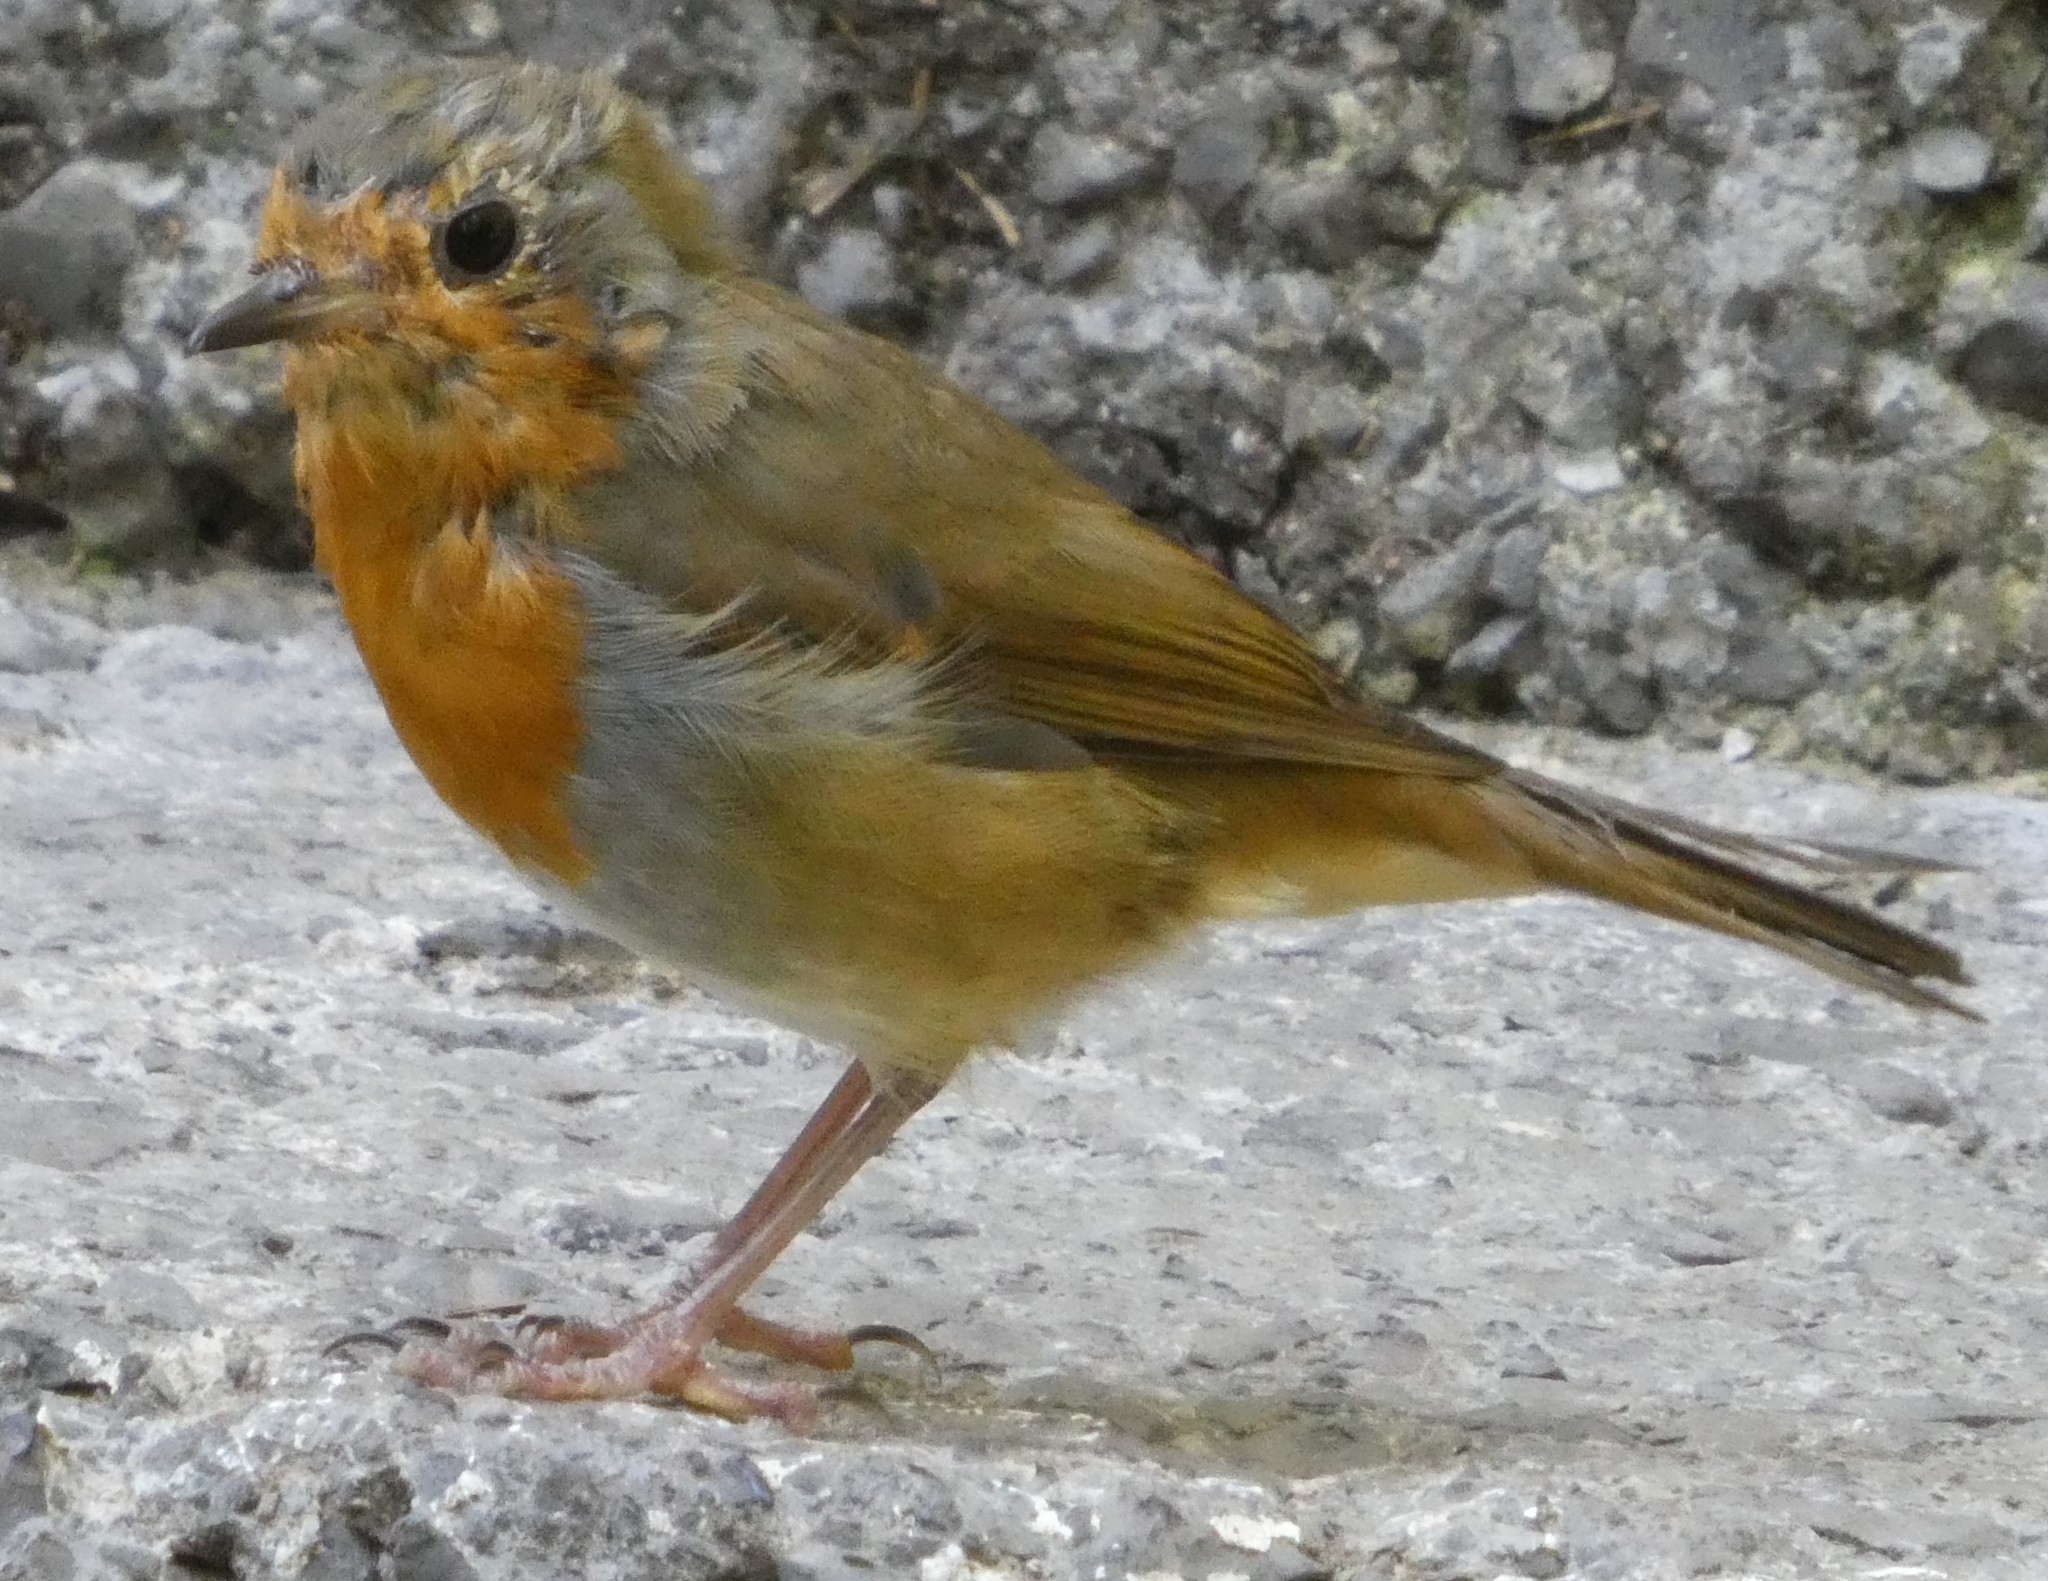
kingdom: Animalia
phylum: Chordata
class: Aves
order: Passeriformes
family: Muscicapidae
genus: Erithacus
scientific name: Erithacus rubecula
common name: European robin
